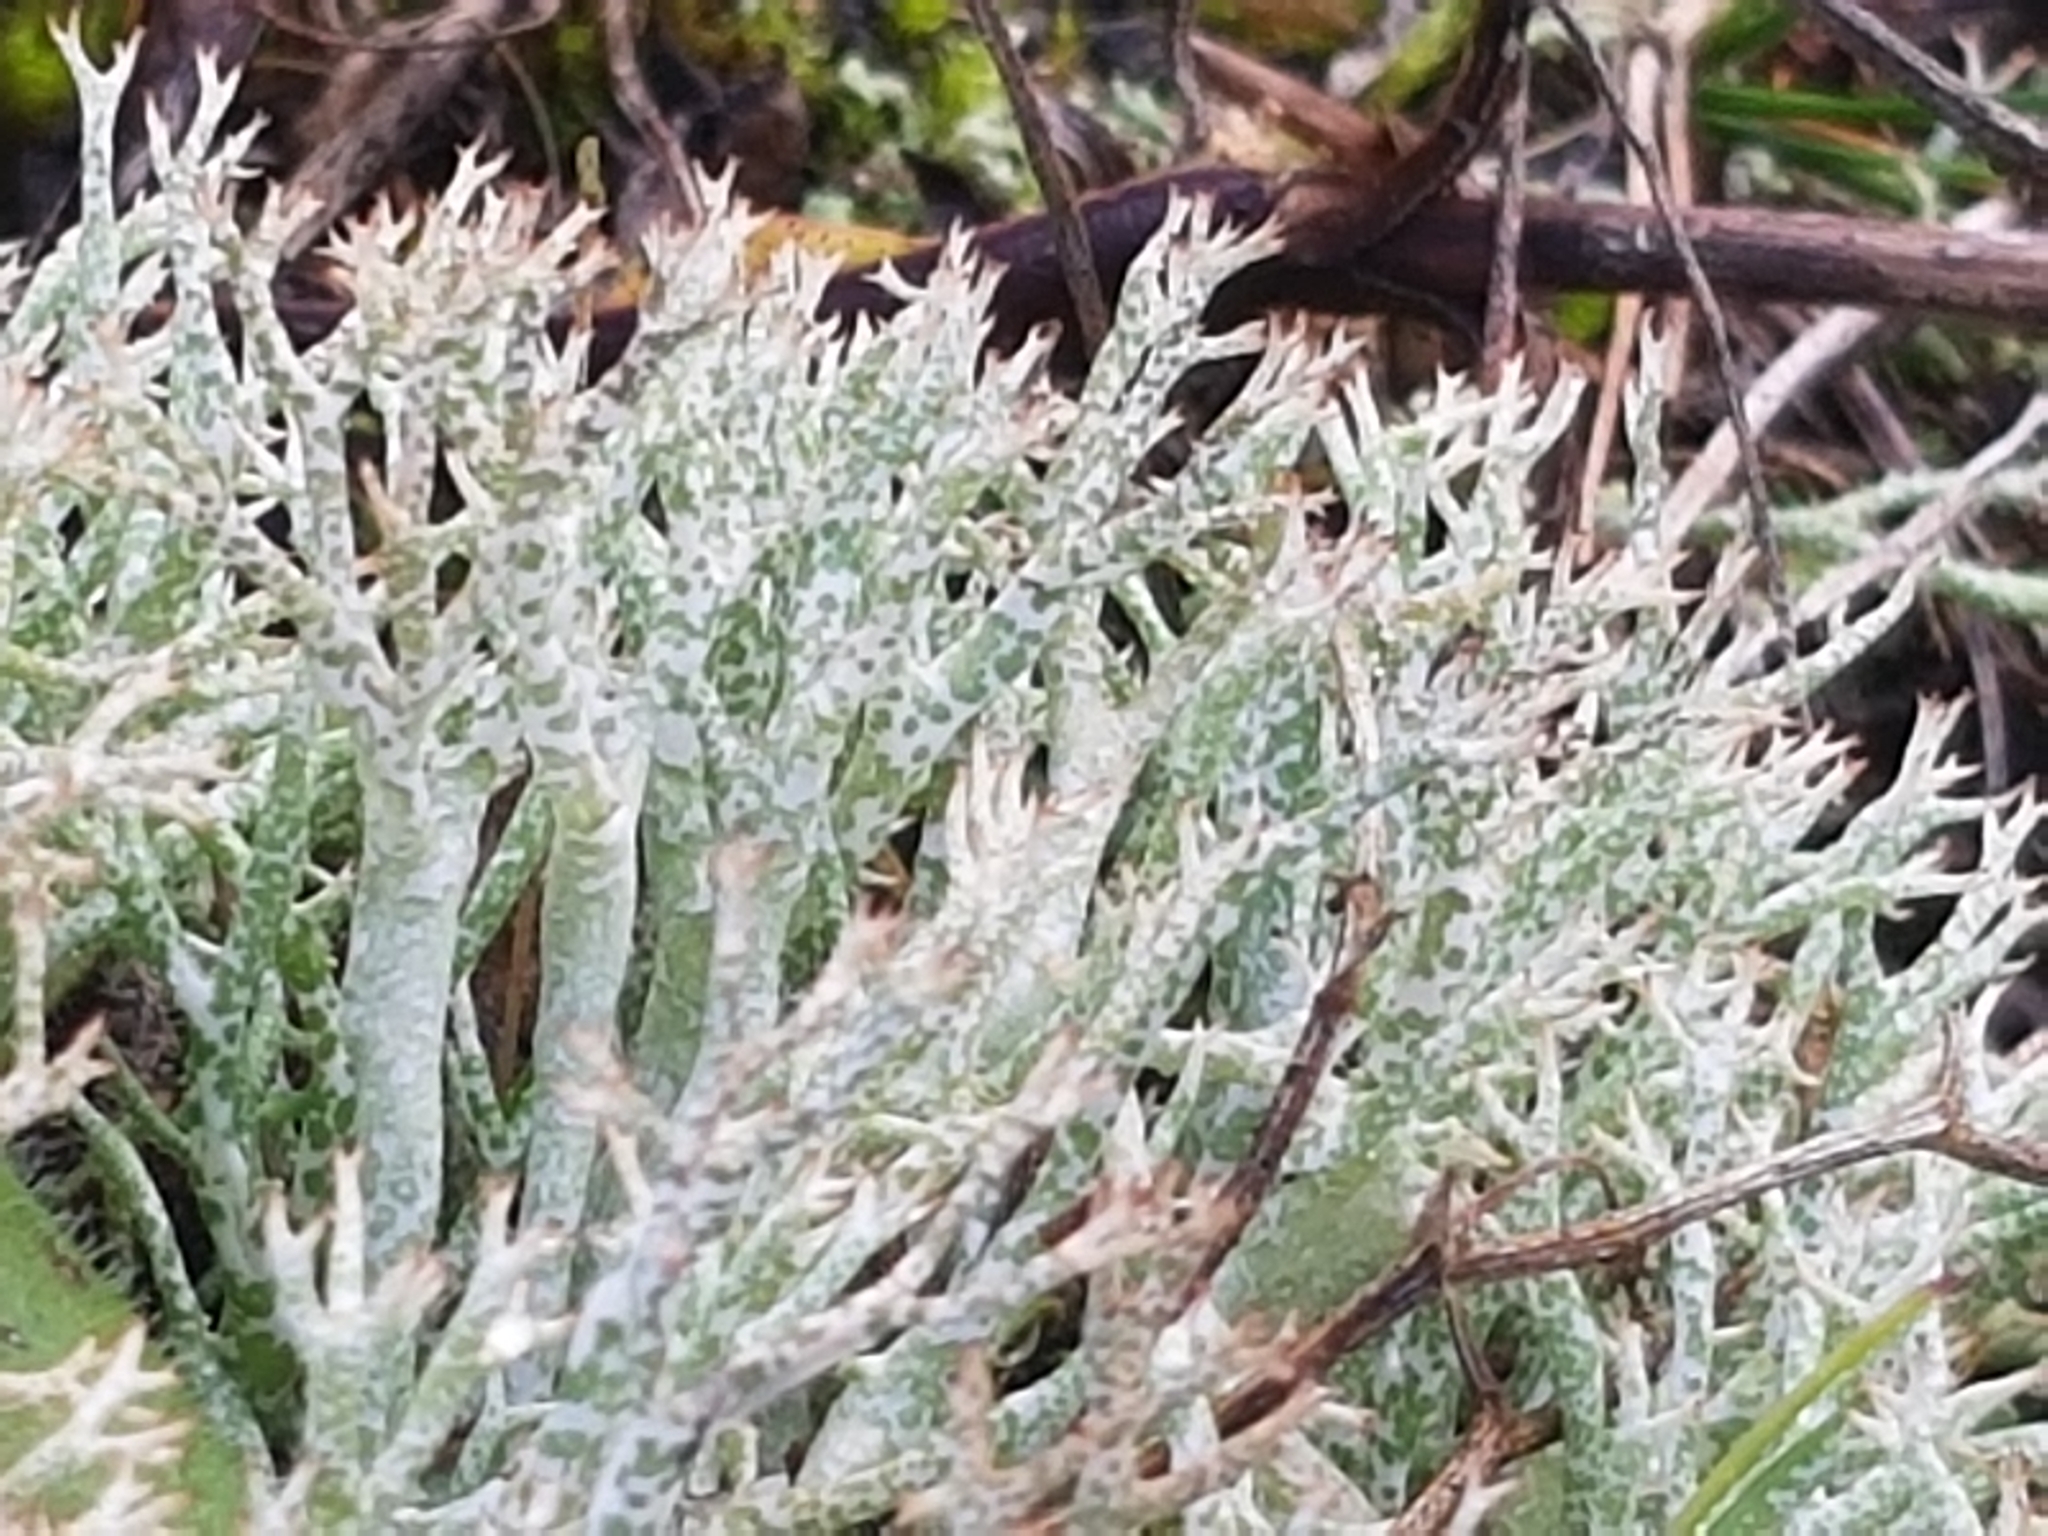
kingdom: Fungi
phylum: Ascomycota
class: Lecanoromycetes
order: Lecanorales
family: Cladoniaceae
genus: Cladonia
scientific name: Cladonia rangiformis
